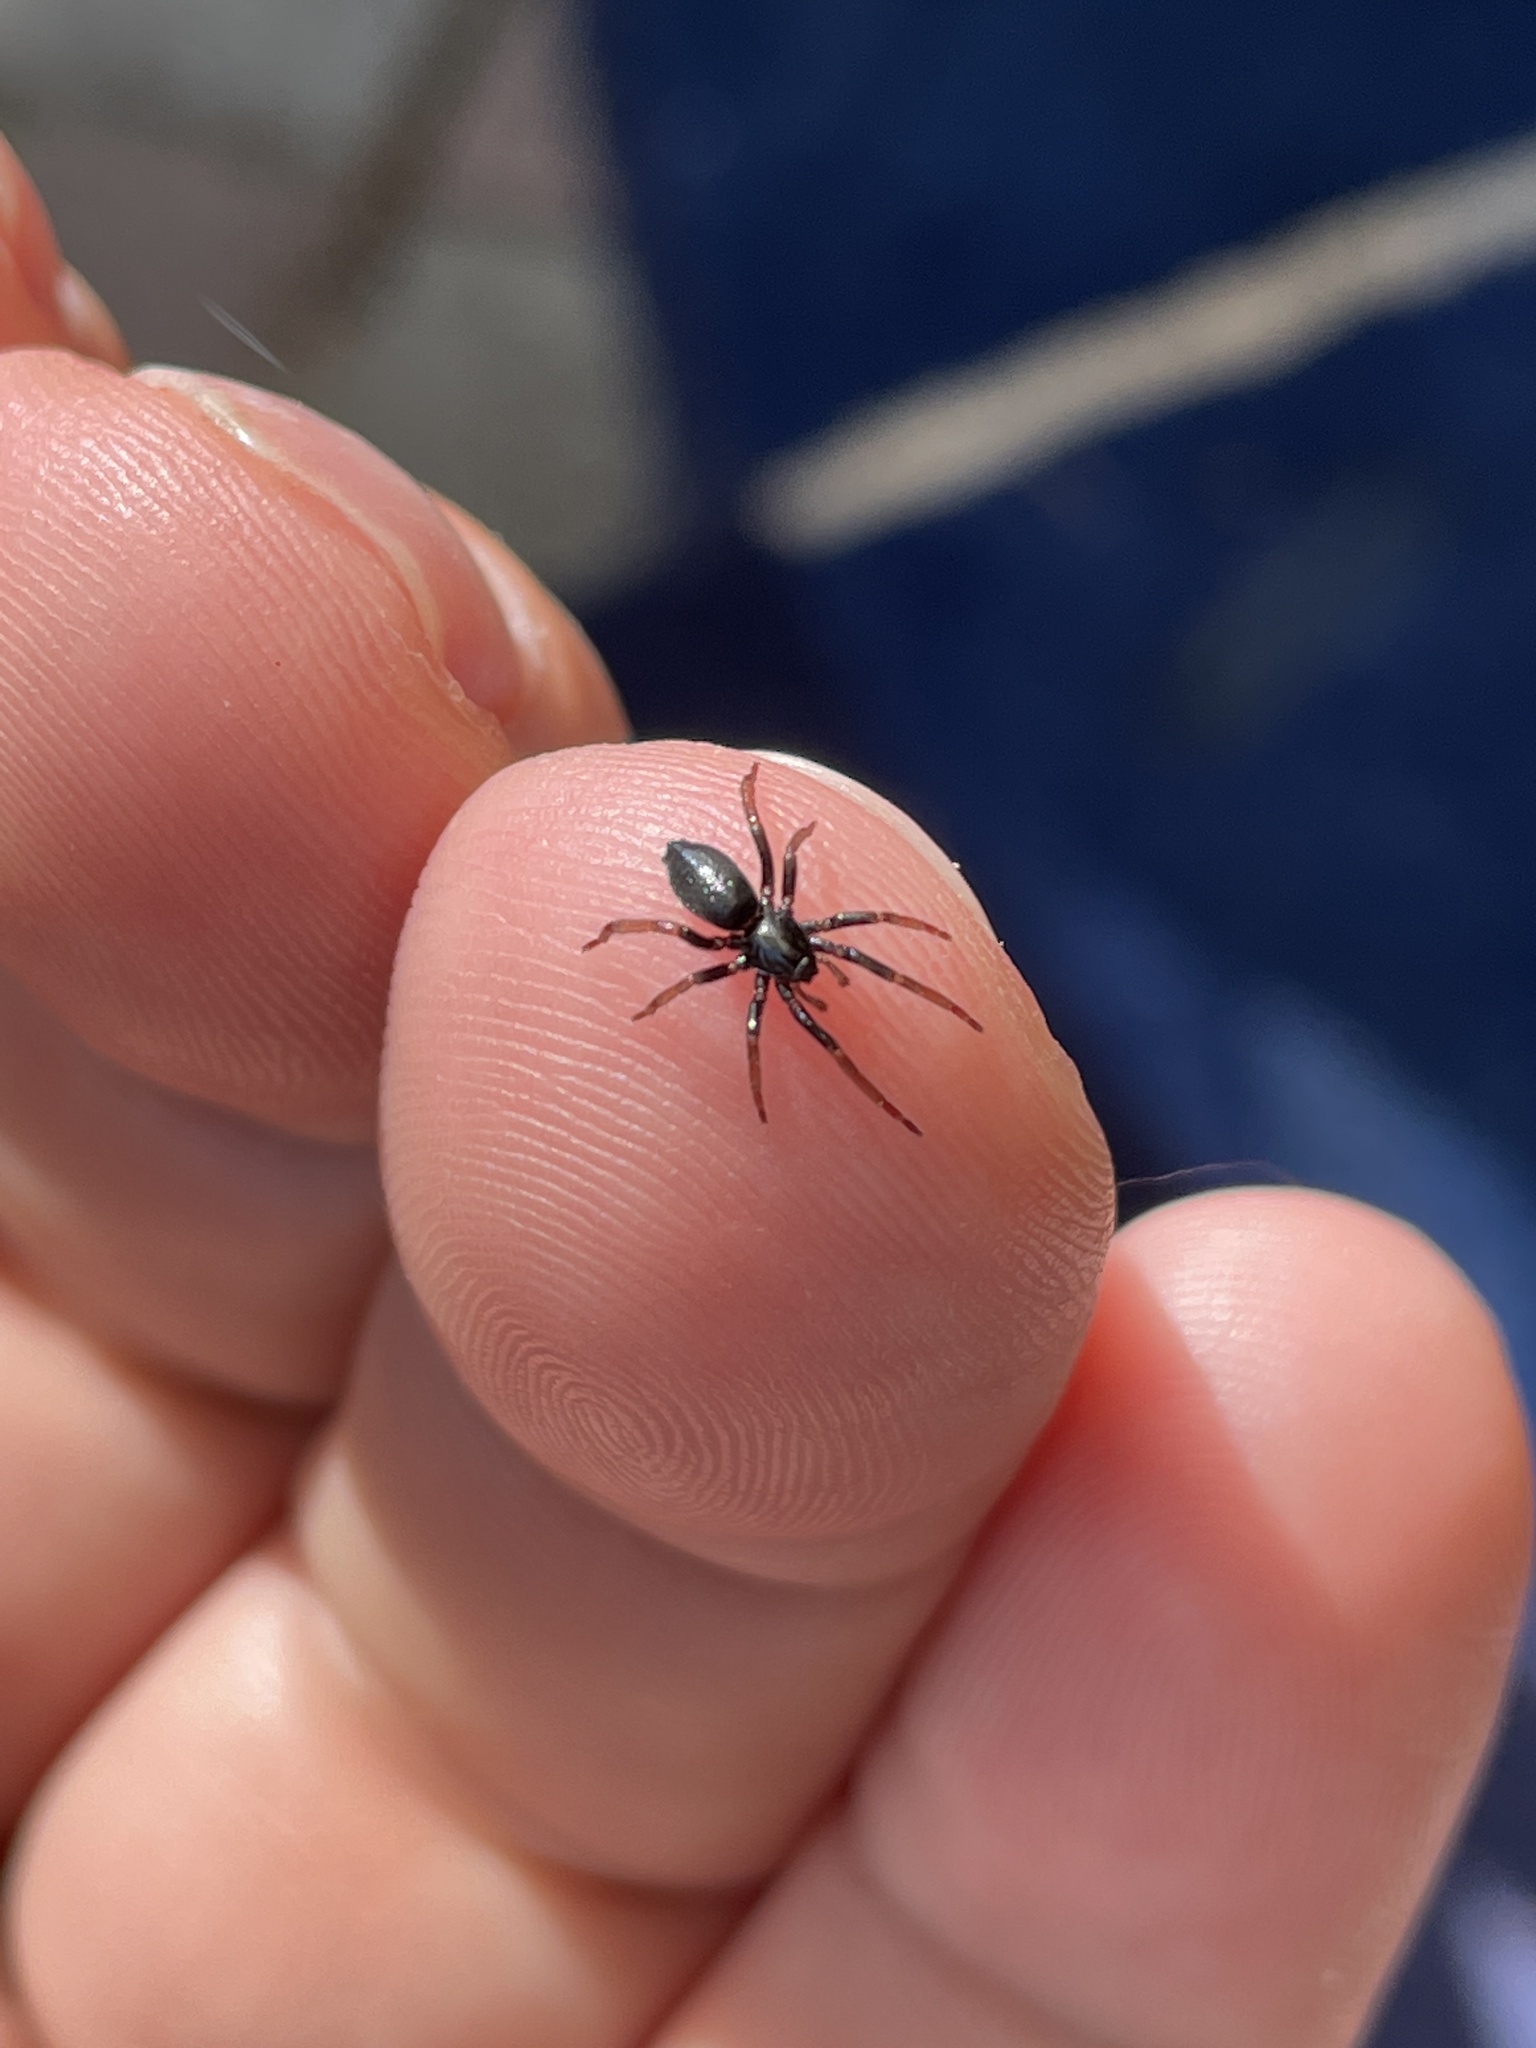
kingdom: Animalia
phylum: Arthropoda
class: Arachnida
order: Araneae
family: Gnaphosidae
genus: Trachyzelotes
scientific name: Trachyzelotes pedestris
